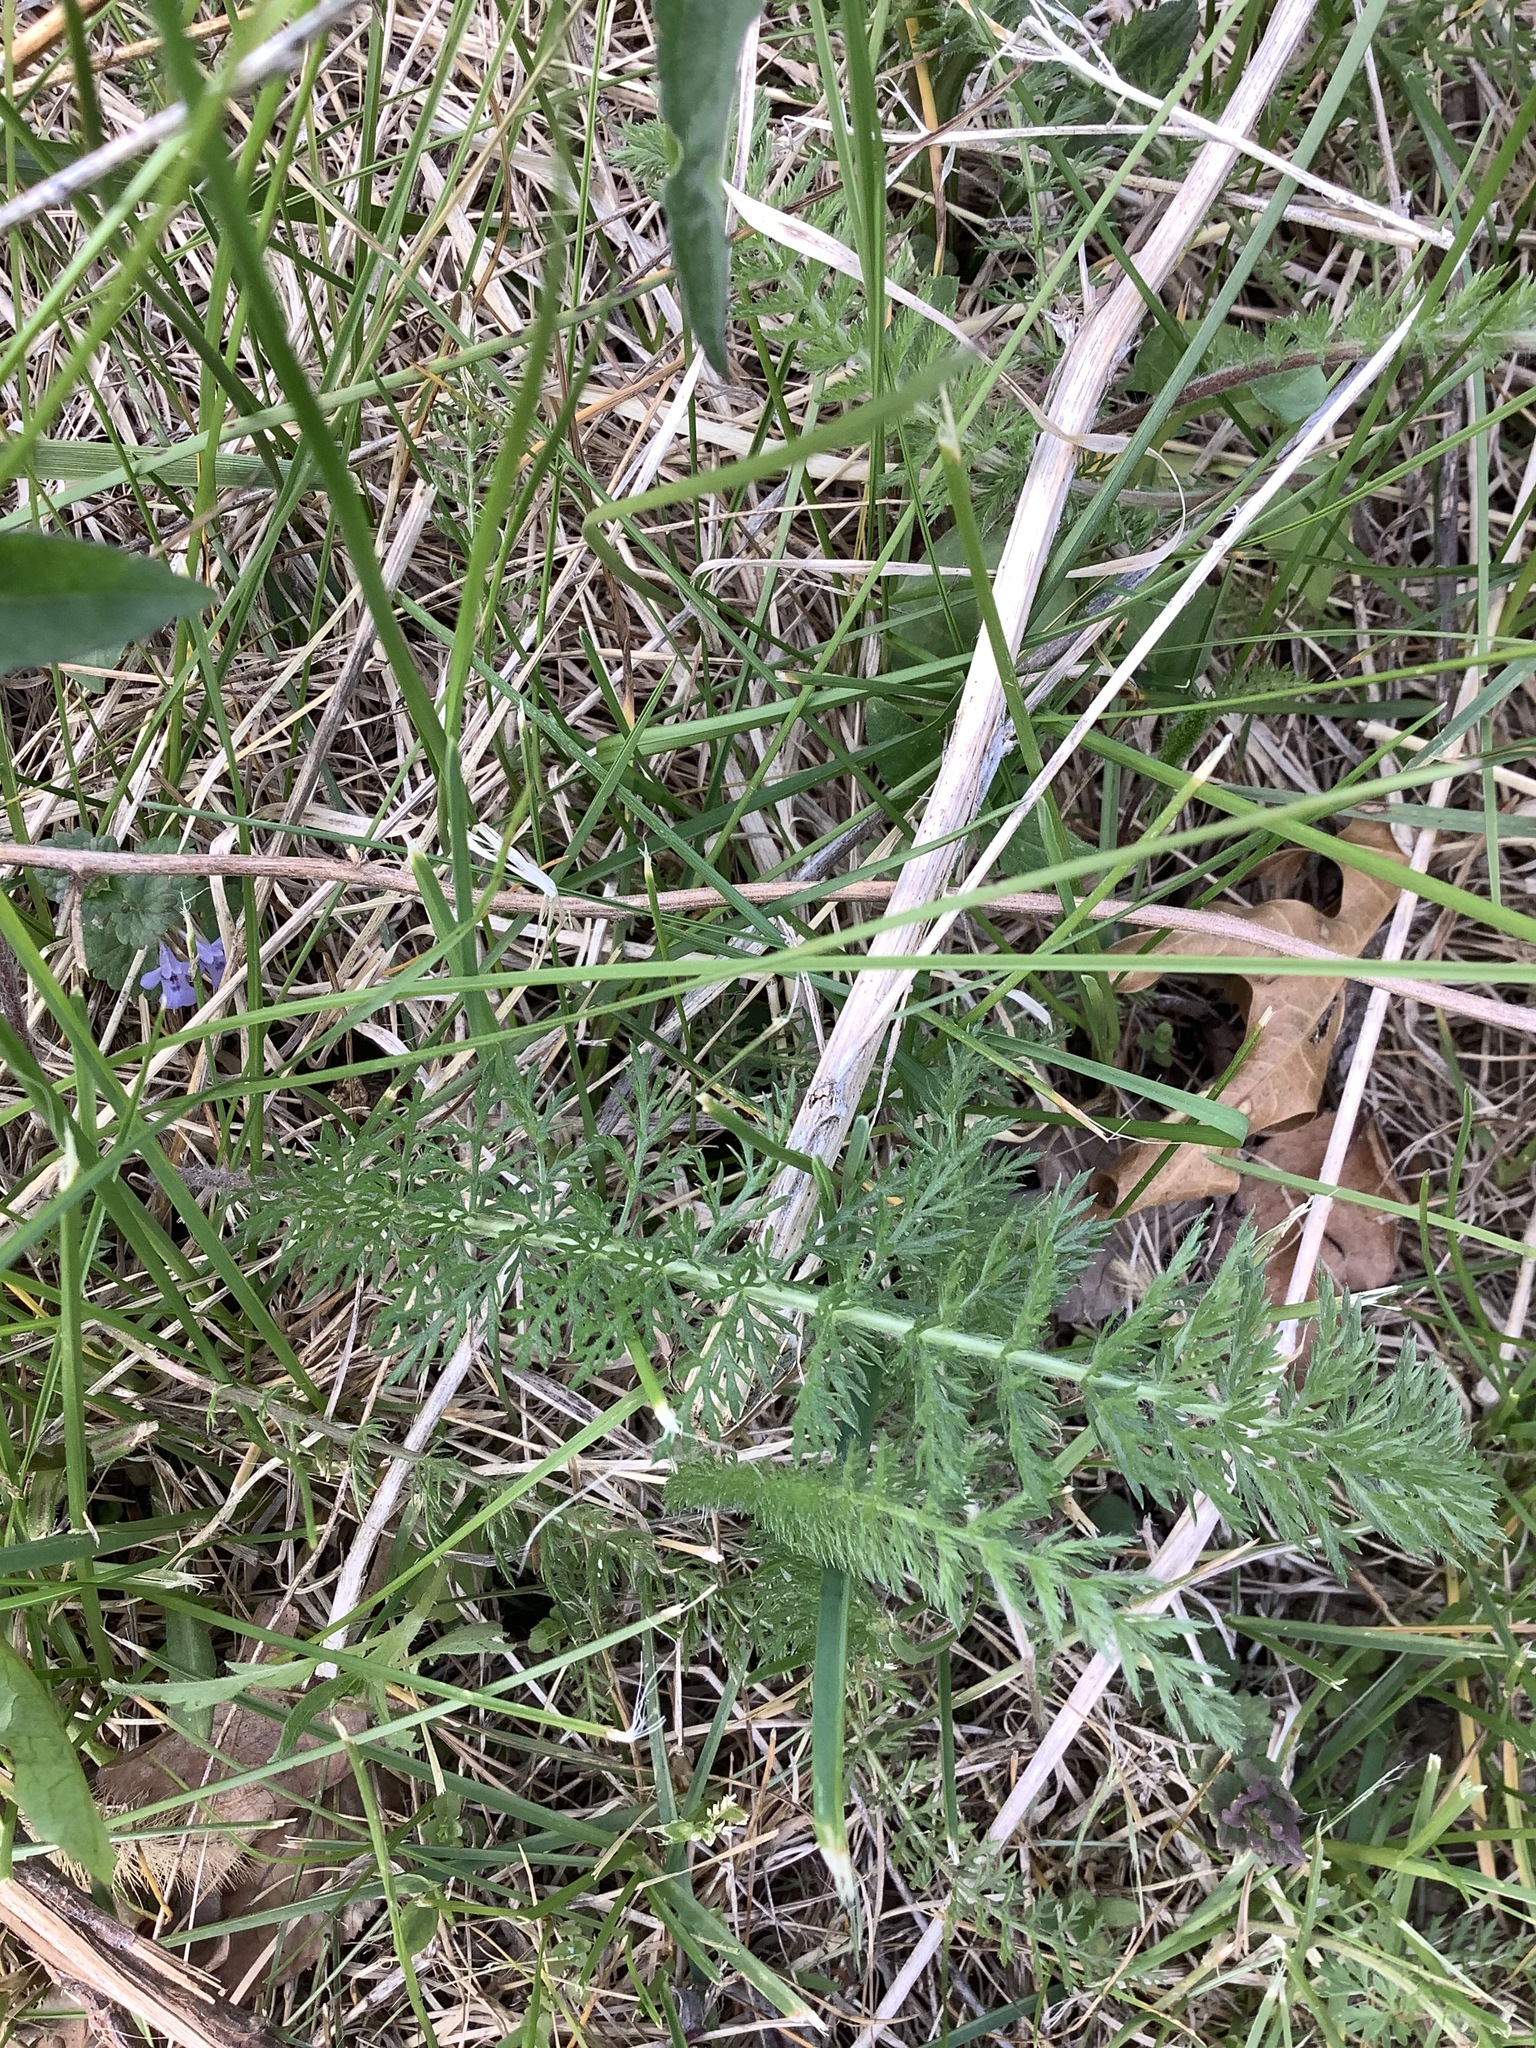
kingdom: Plantae
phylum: Tracheophyta
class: Magnoliopsida
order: Asterales
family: Asteraceae
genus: Achillea
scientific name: Achillea millefolium
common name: Yarrow
